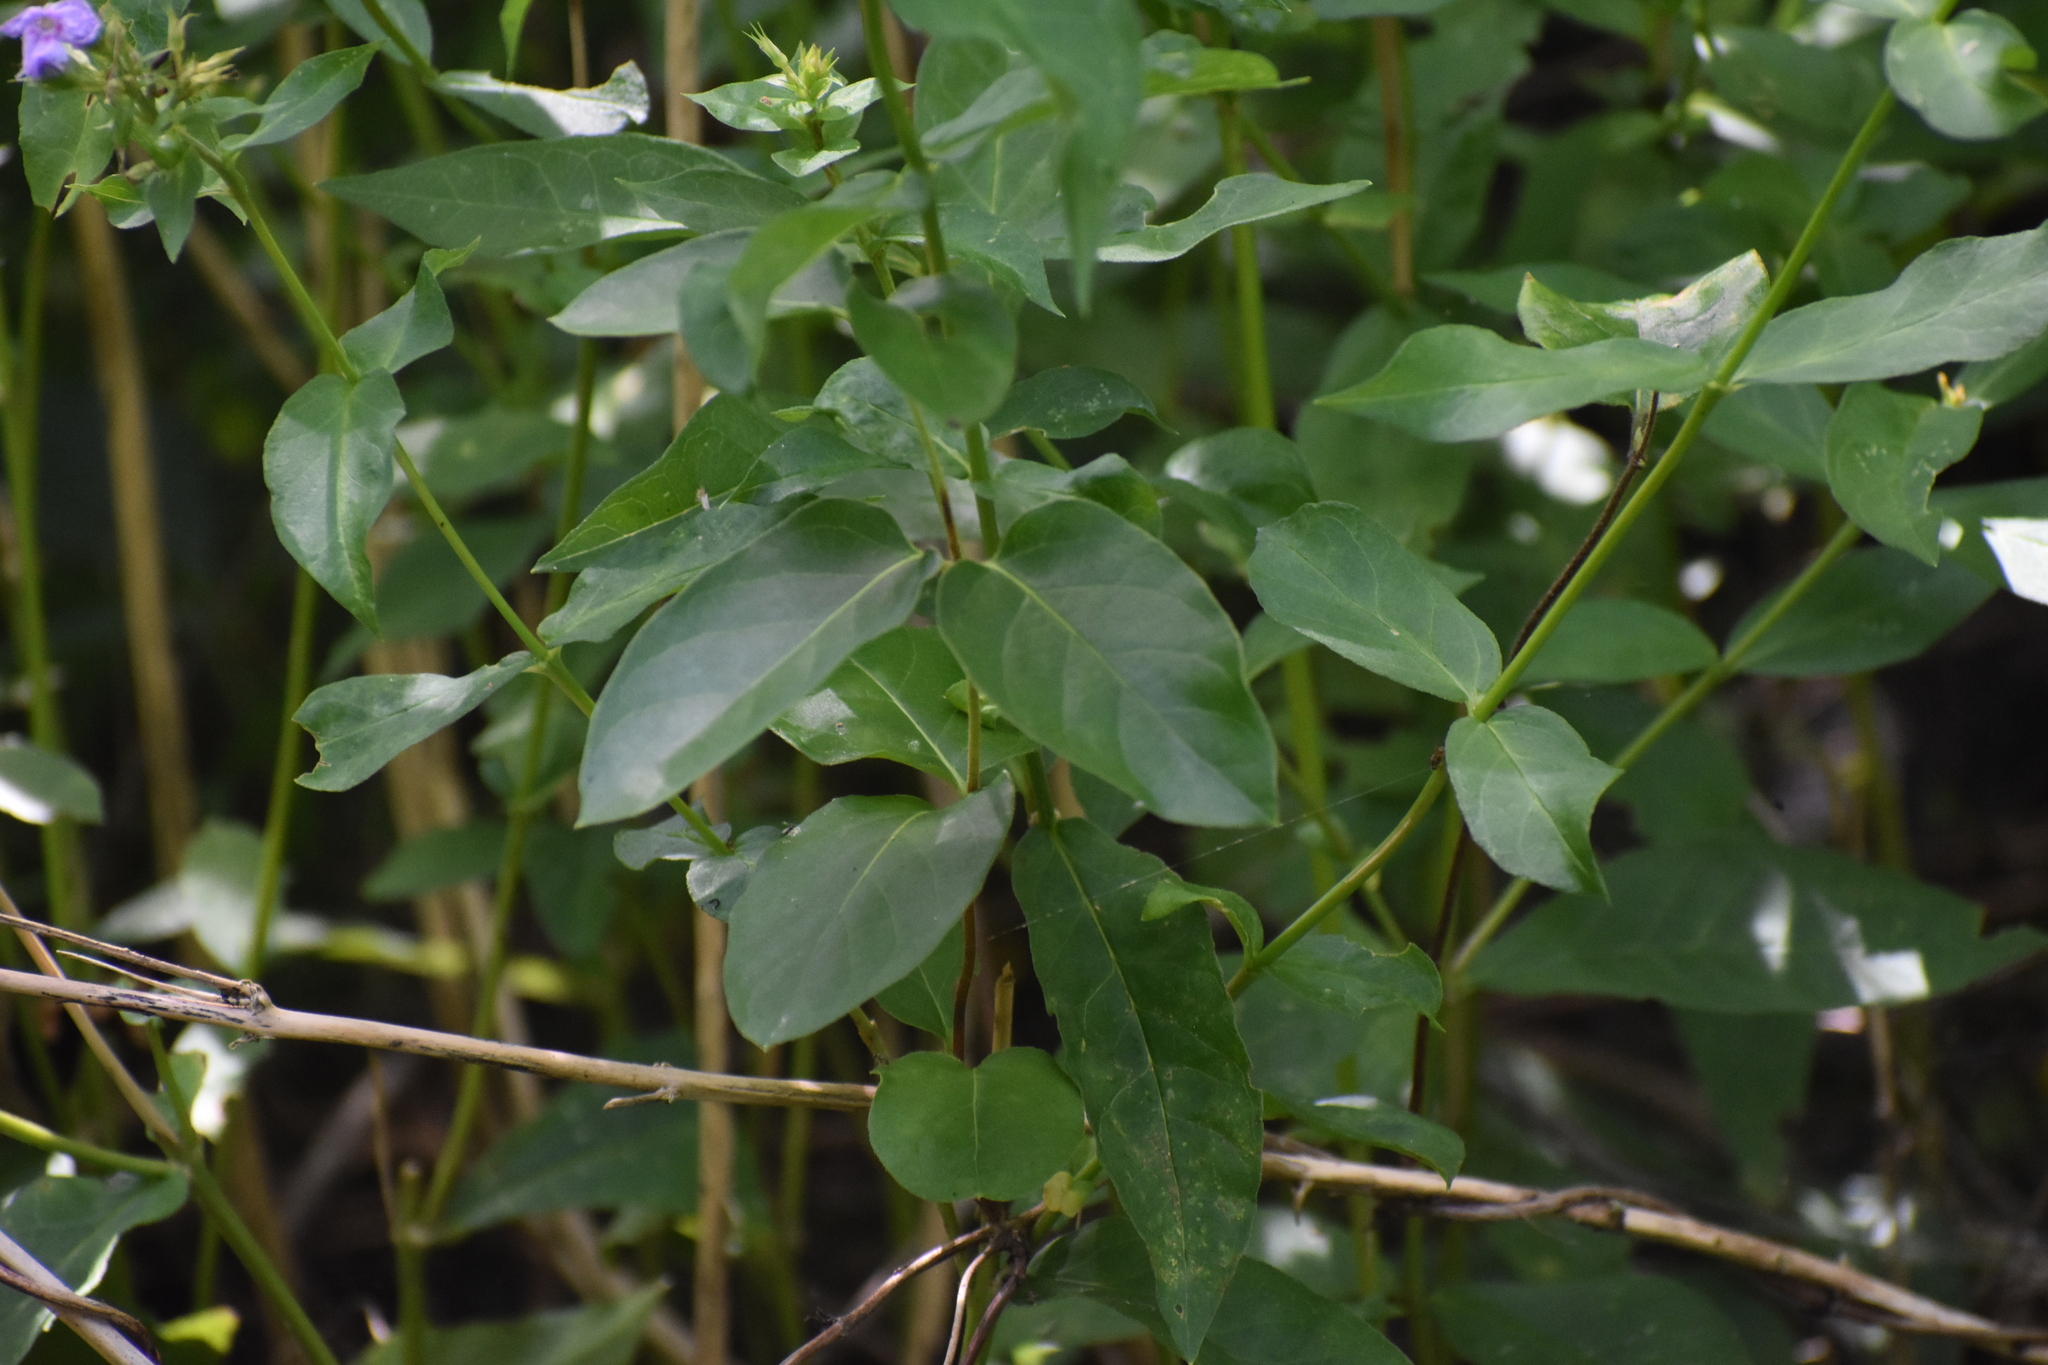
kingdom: Plantae
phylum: Tracheophyta
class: Magnoliopsida
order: Ericales
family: Polemoniaceae
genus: Phlox
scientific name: Phlox paniculata
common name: Fall phlox
